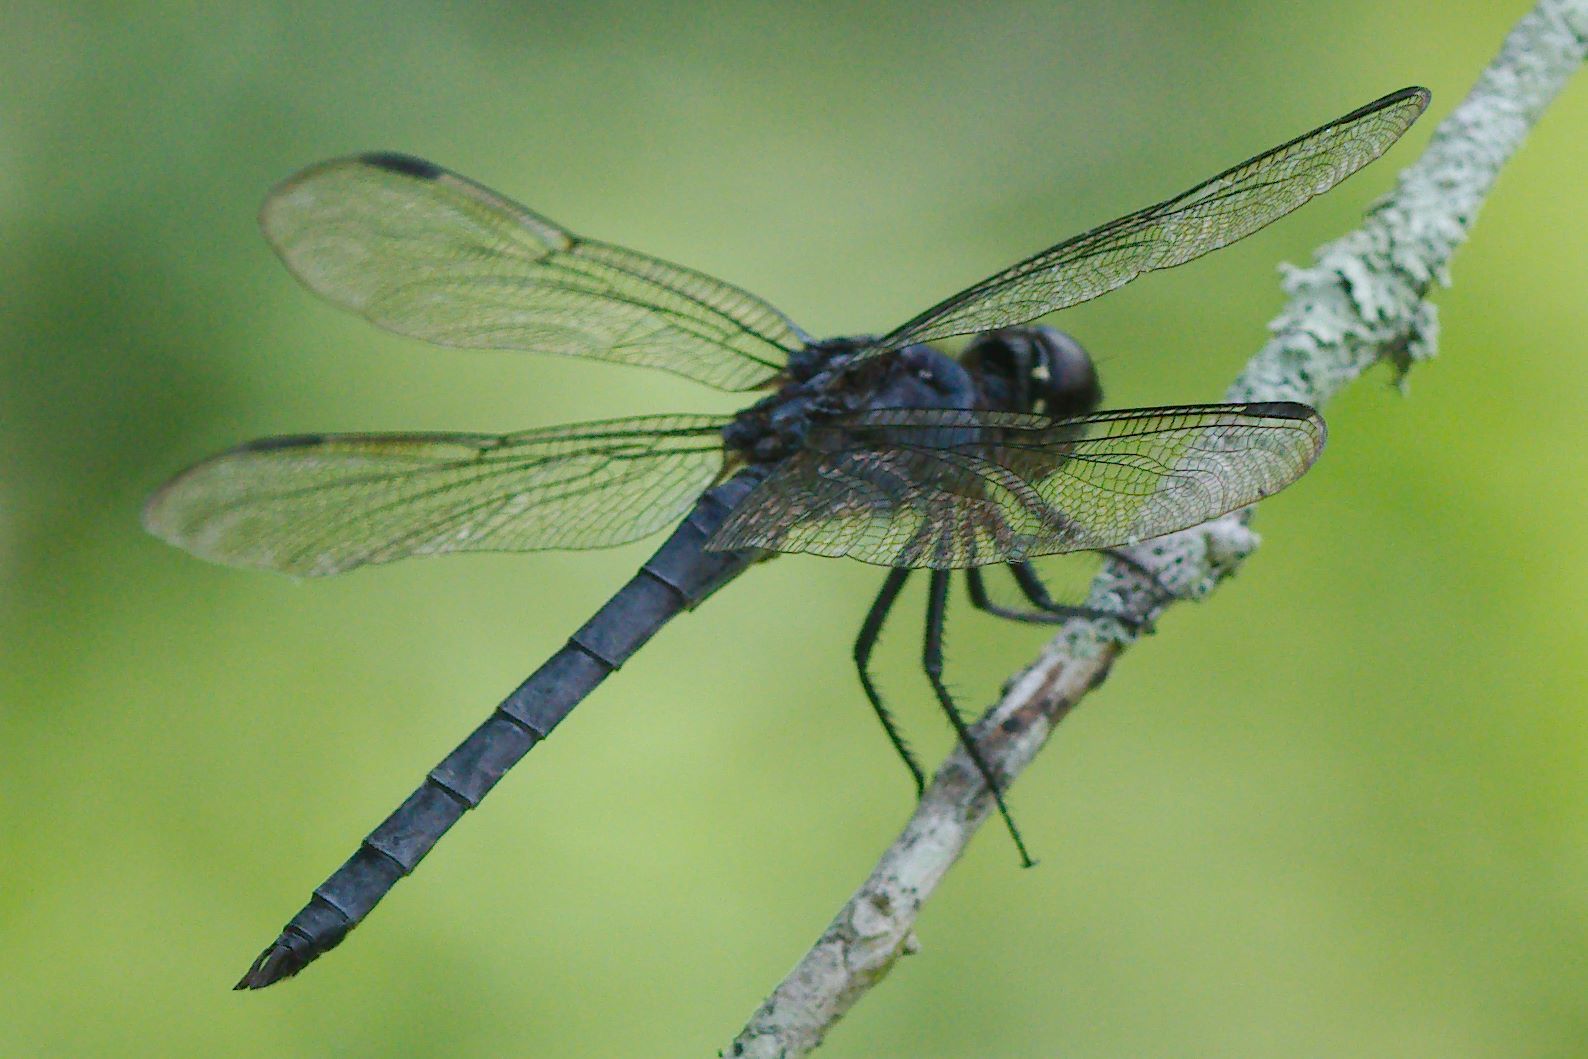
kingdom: Animalia
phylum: Arthropoda
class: Insecta
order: Odonata
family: Libellulidae
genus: Libellula
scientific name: Libellula incesta
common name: Slaty skimmer
